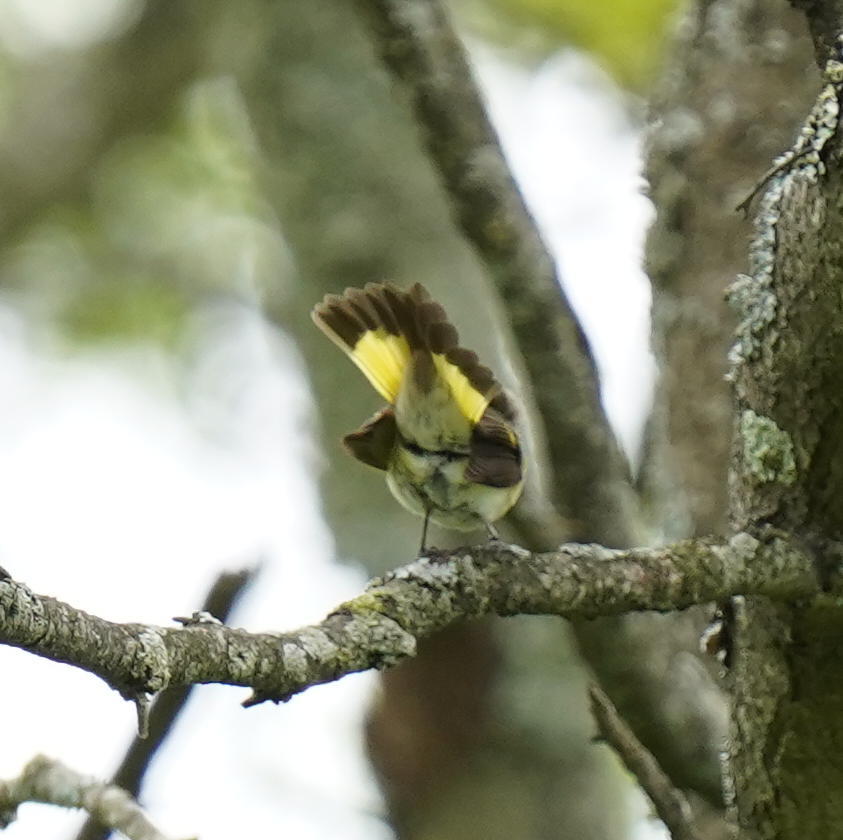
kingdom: Animalia
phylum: Chordata
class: Aves
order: Passeriformes
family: Parulidae
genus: Setophaga
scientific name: Setophaga ruticilla
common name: American redstart
